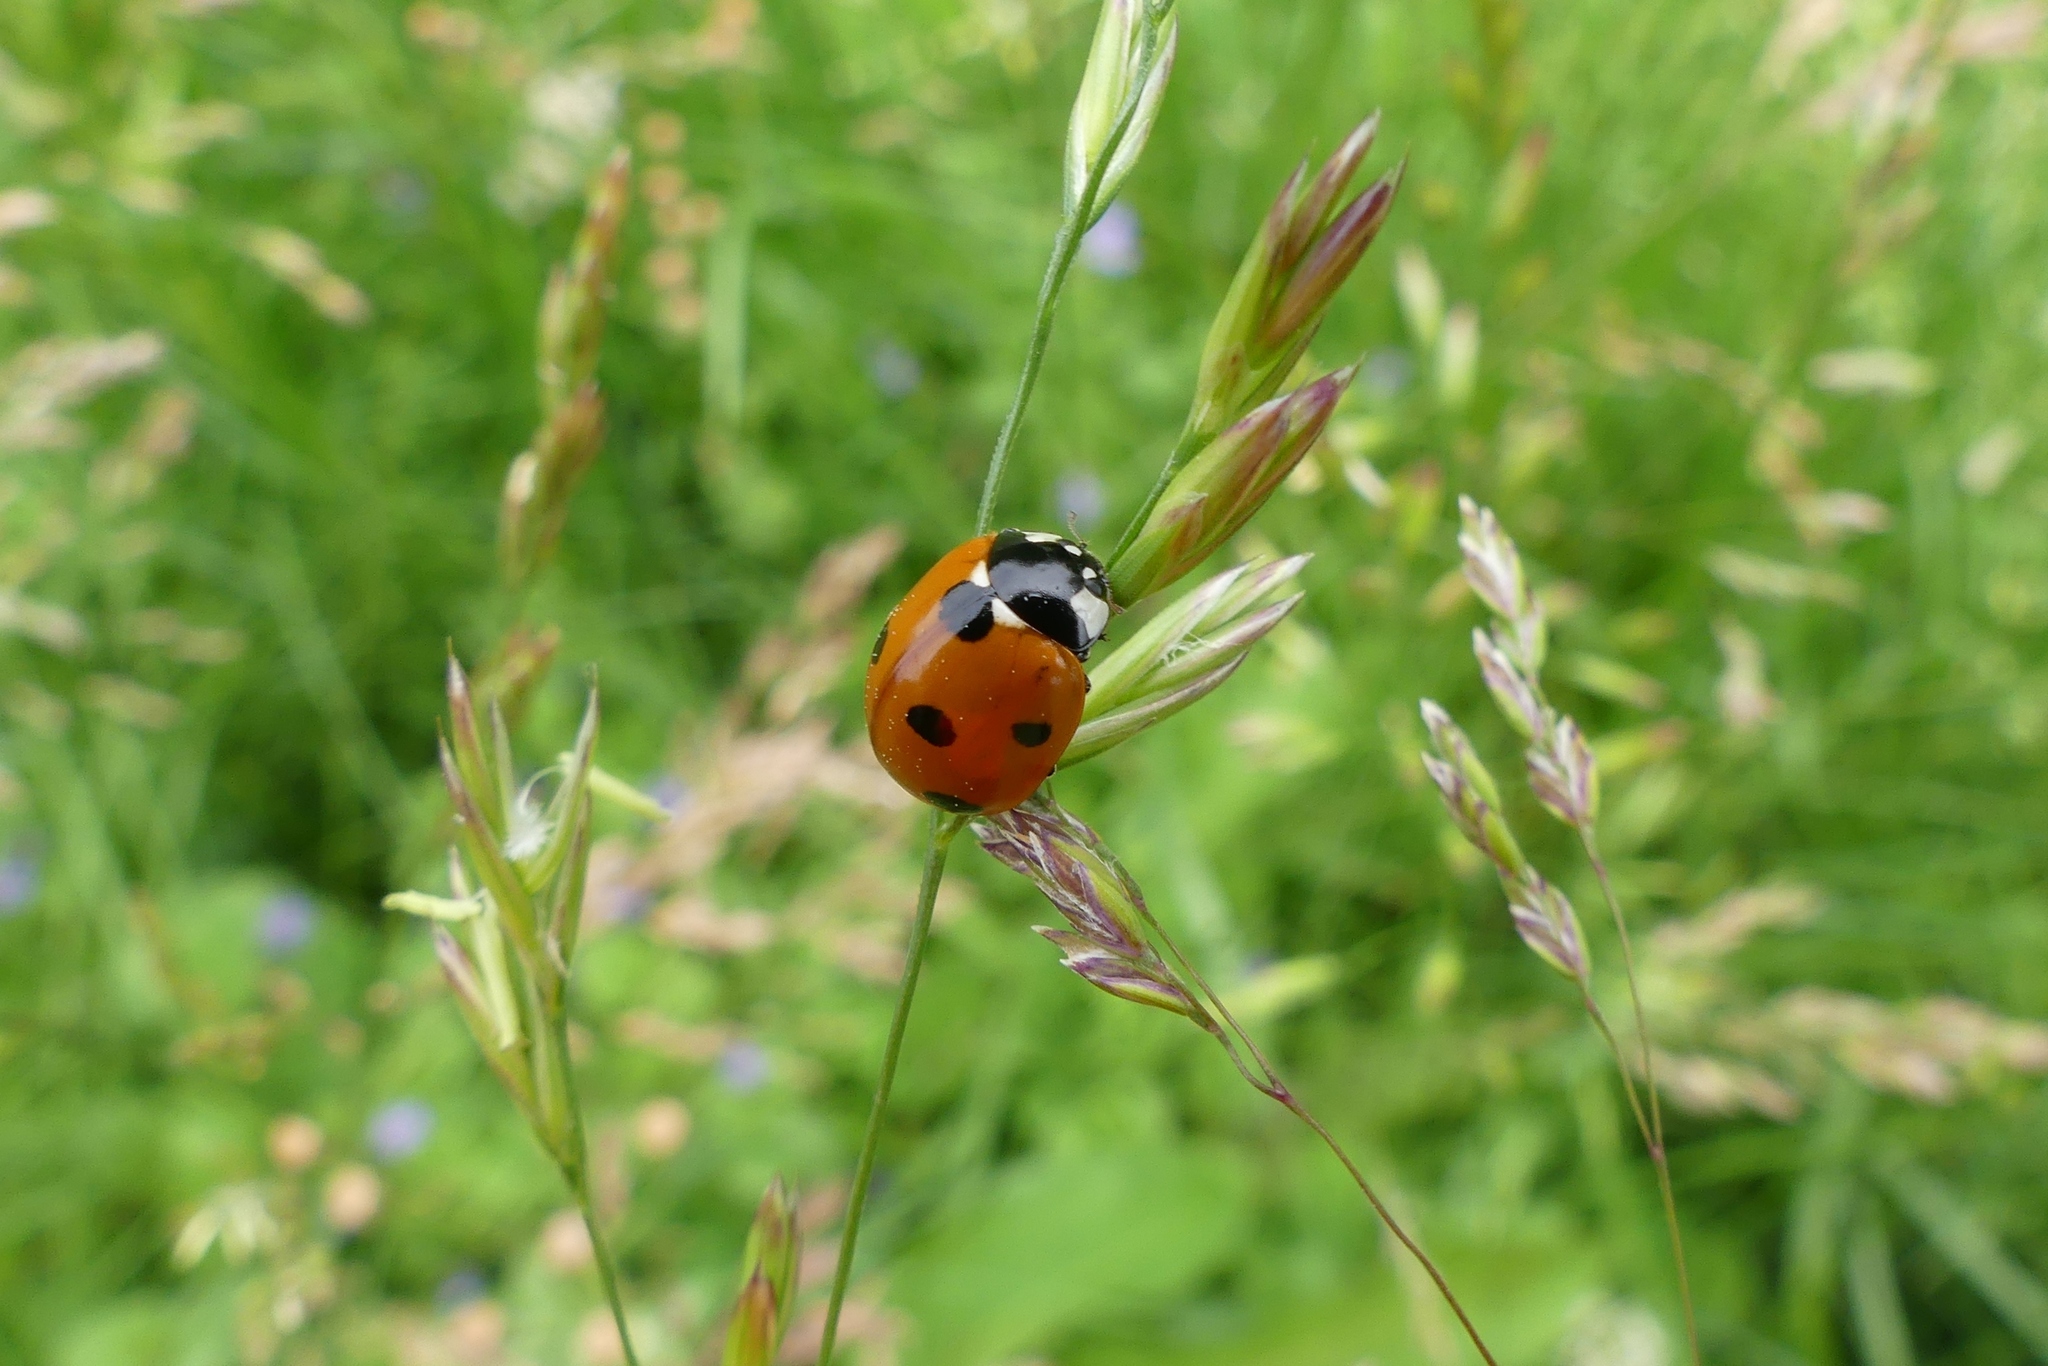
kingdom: Animalia
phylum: Arthropoda
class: Insecta
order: Coleoptera
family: Coccinellidae
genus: Coccinella
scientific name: Coccinella septempunctata
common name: Sevenspotted lady beetle
